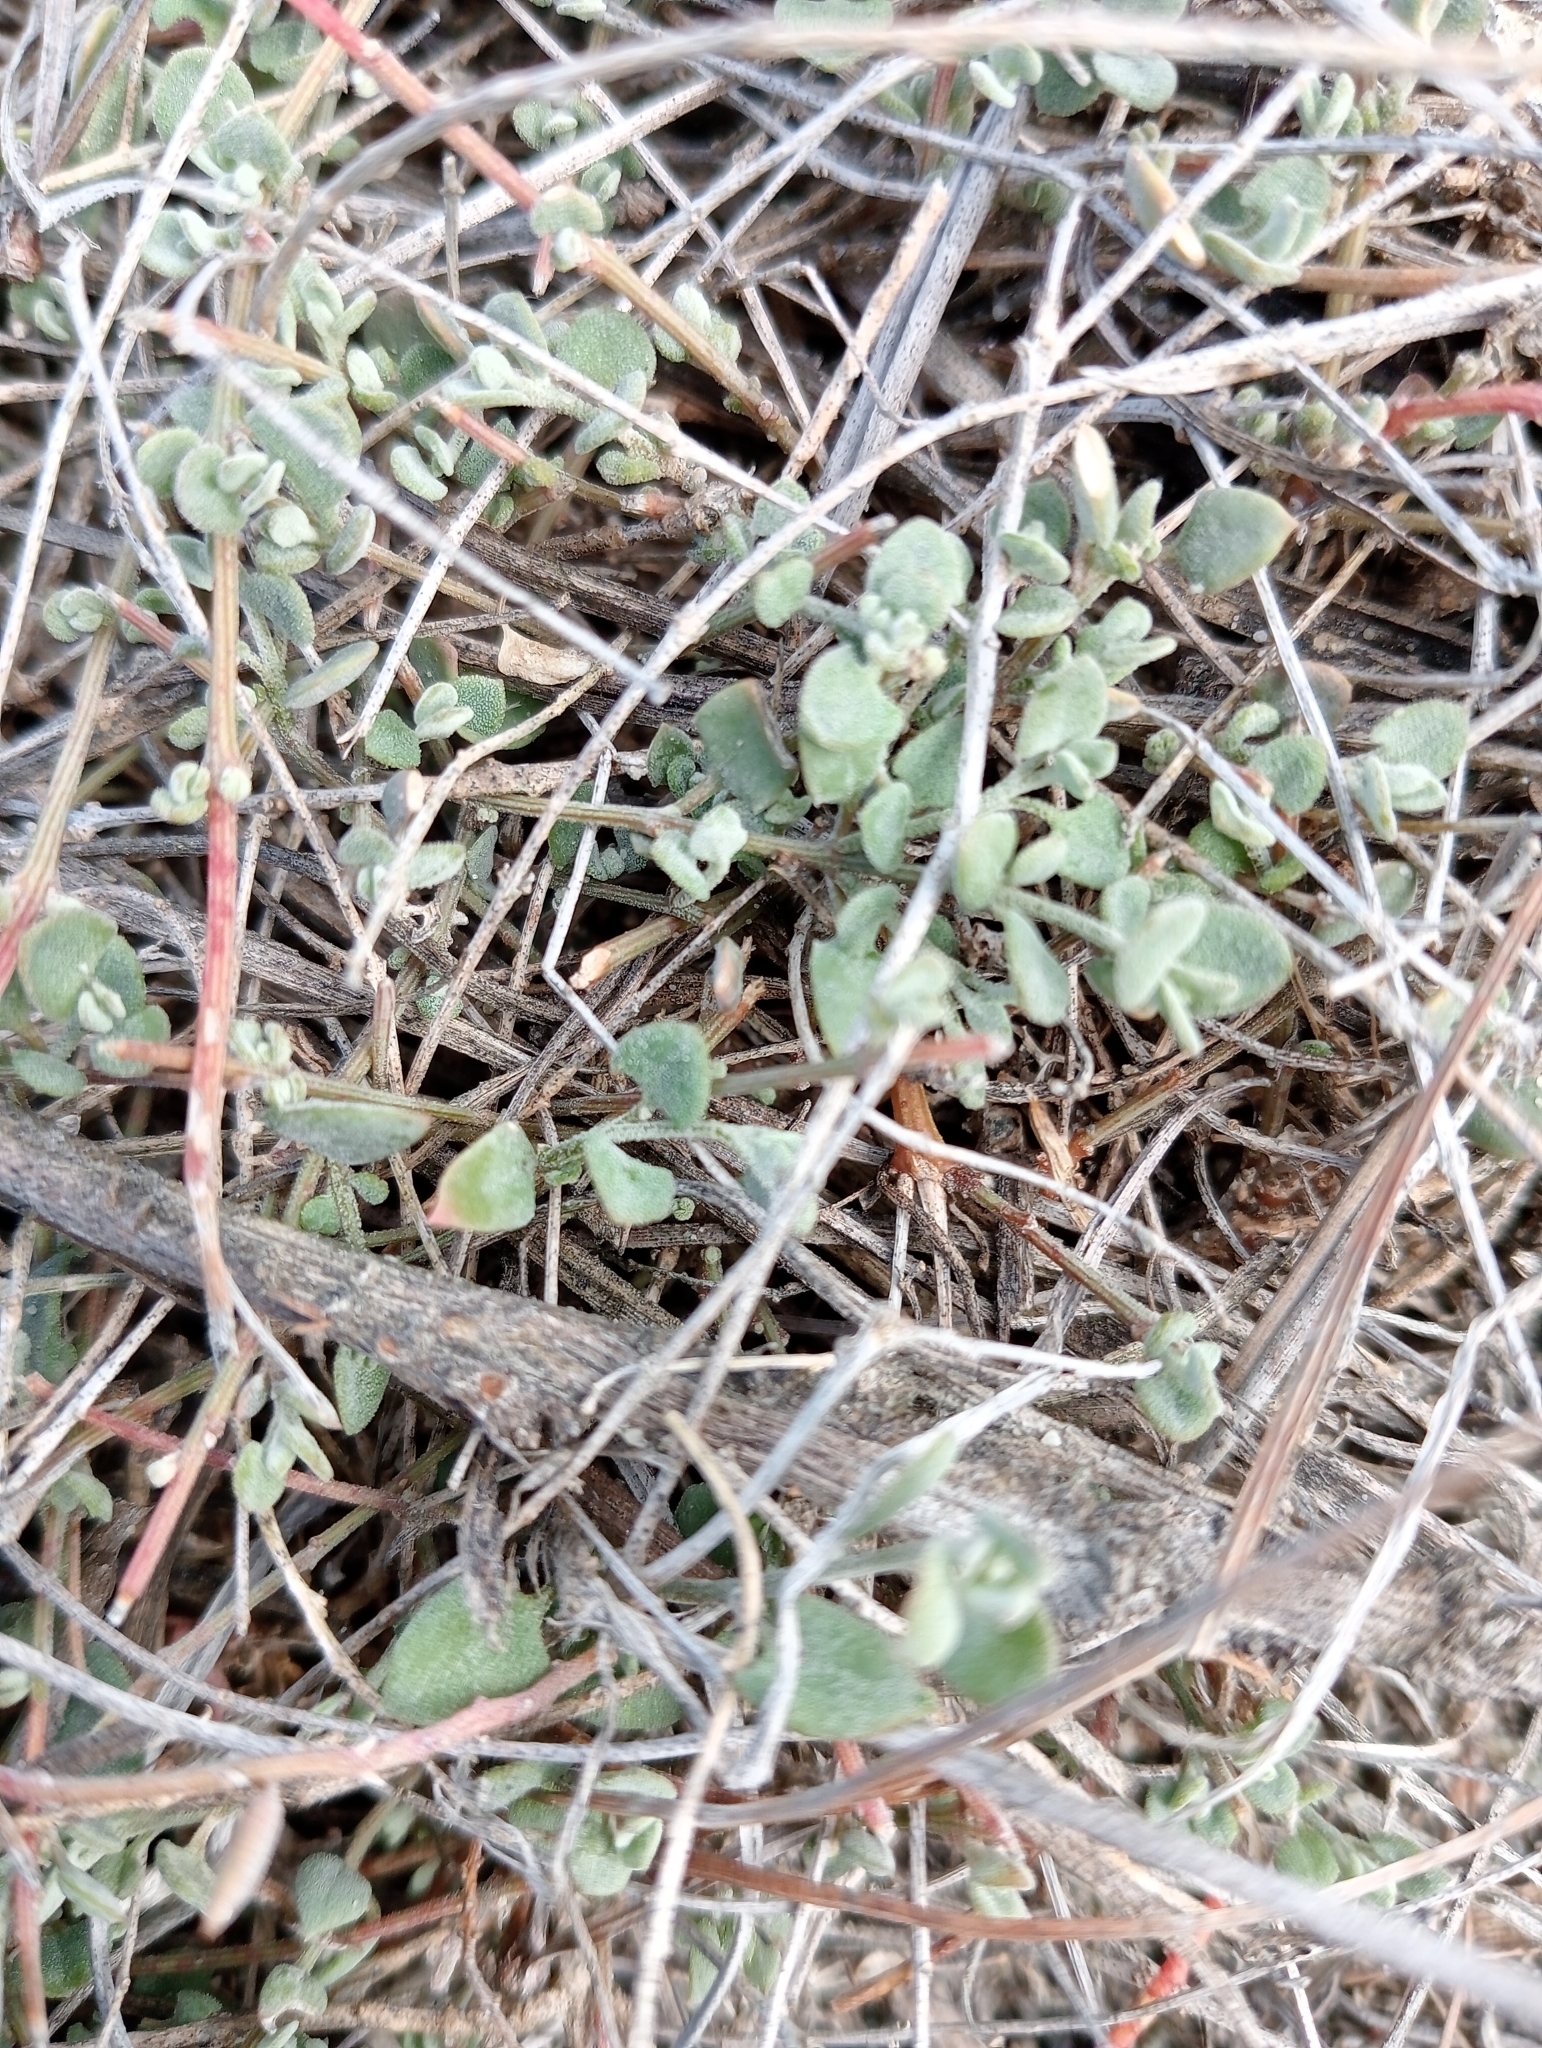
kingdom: Plantae
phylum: Tracheophyta
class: Magnoliopsida
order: Caryophyllales
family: Amaranthaceae
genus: Chenopodium
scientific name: Chenopodium triandrum
